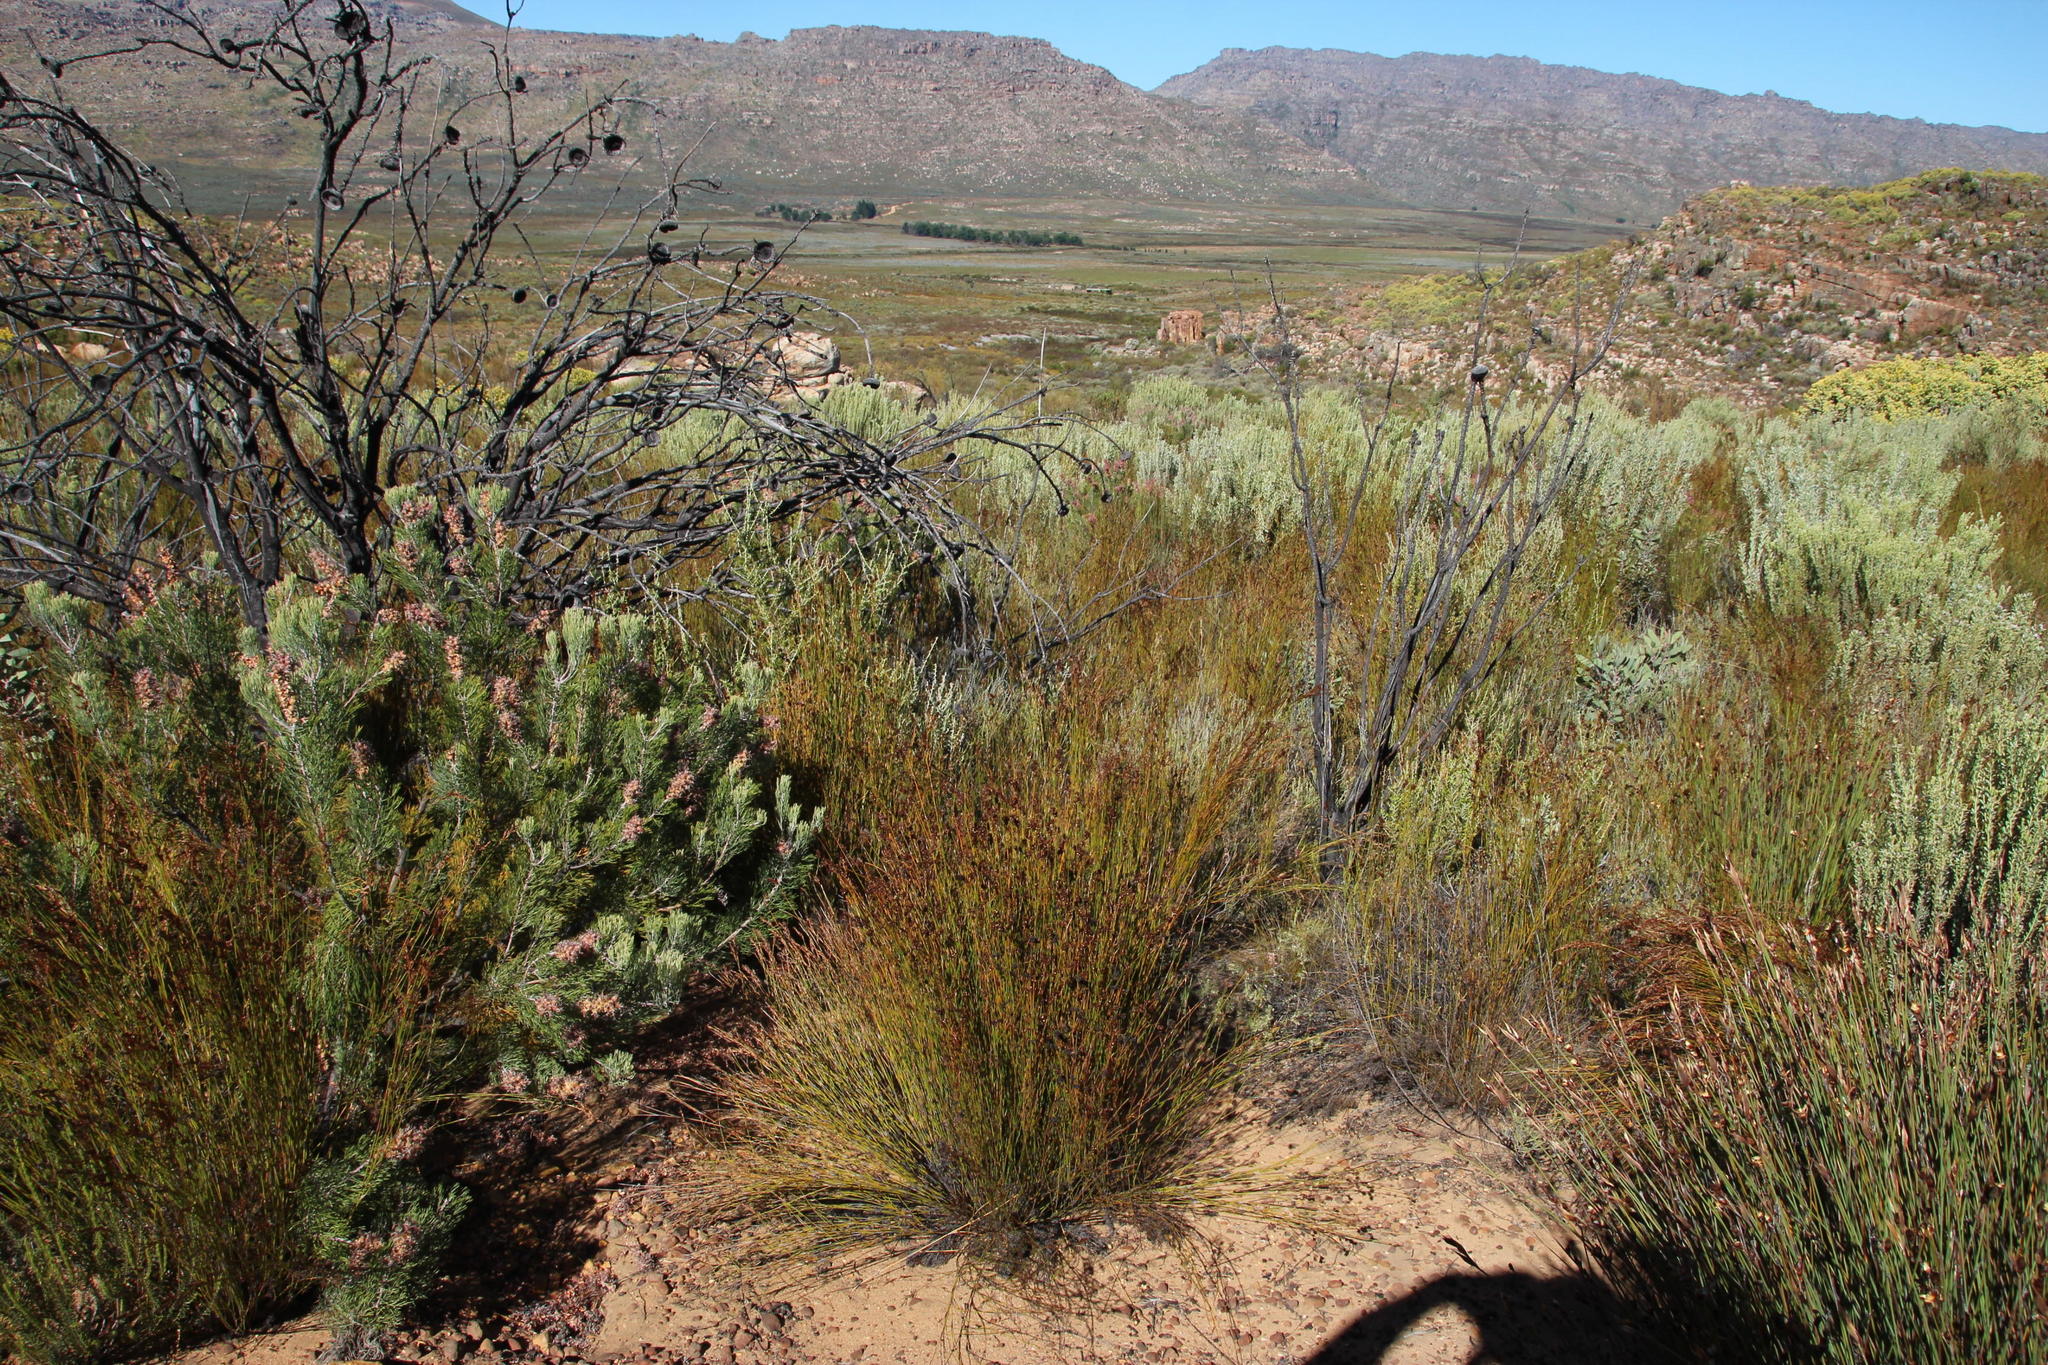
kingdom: Plantae
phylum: Tracheophyta
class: Magnoliopsida
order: Proteales
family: Proteaceae
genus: Paranomus
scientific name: Paranomus bracteolaris
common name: Bokkeveld tree sceptre
